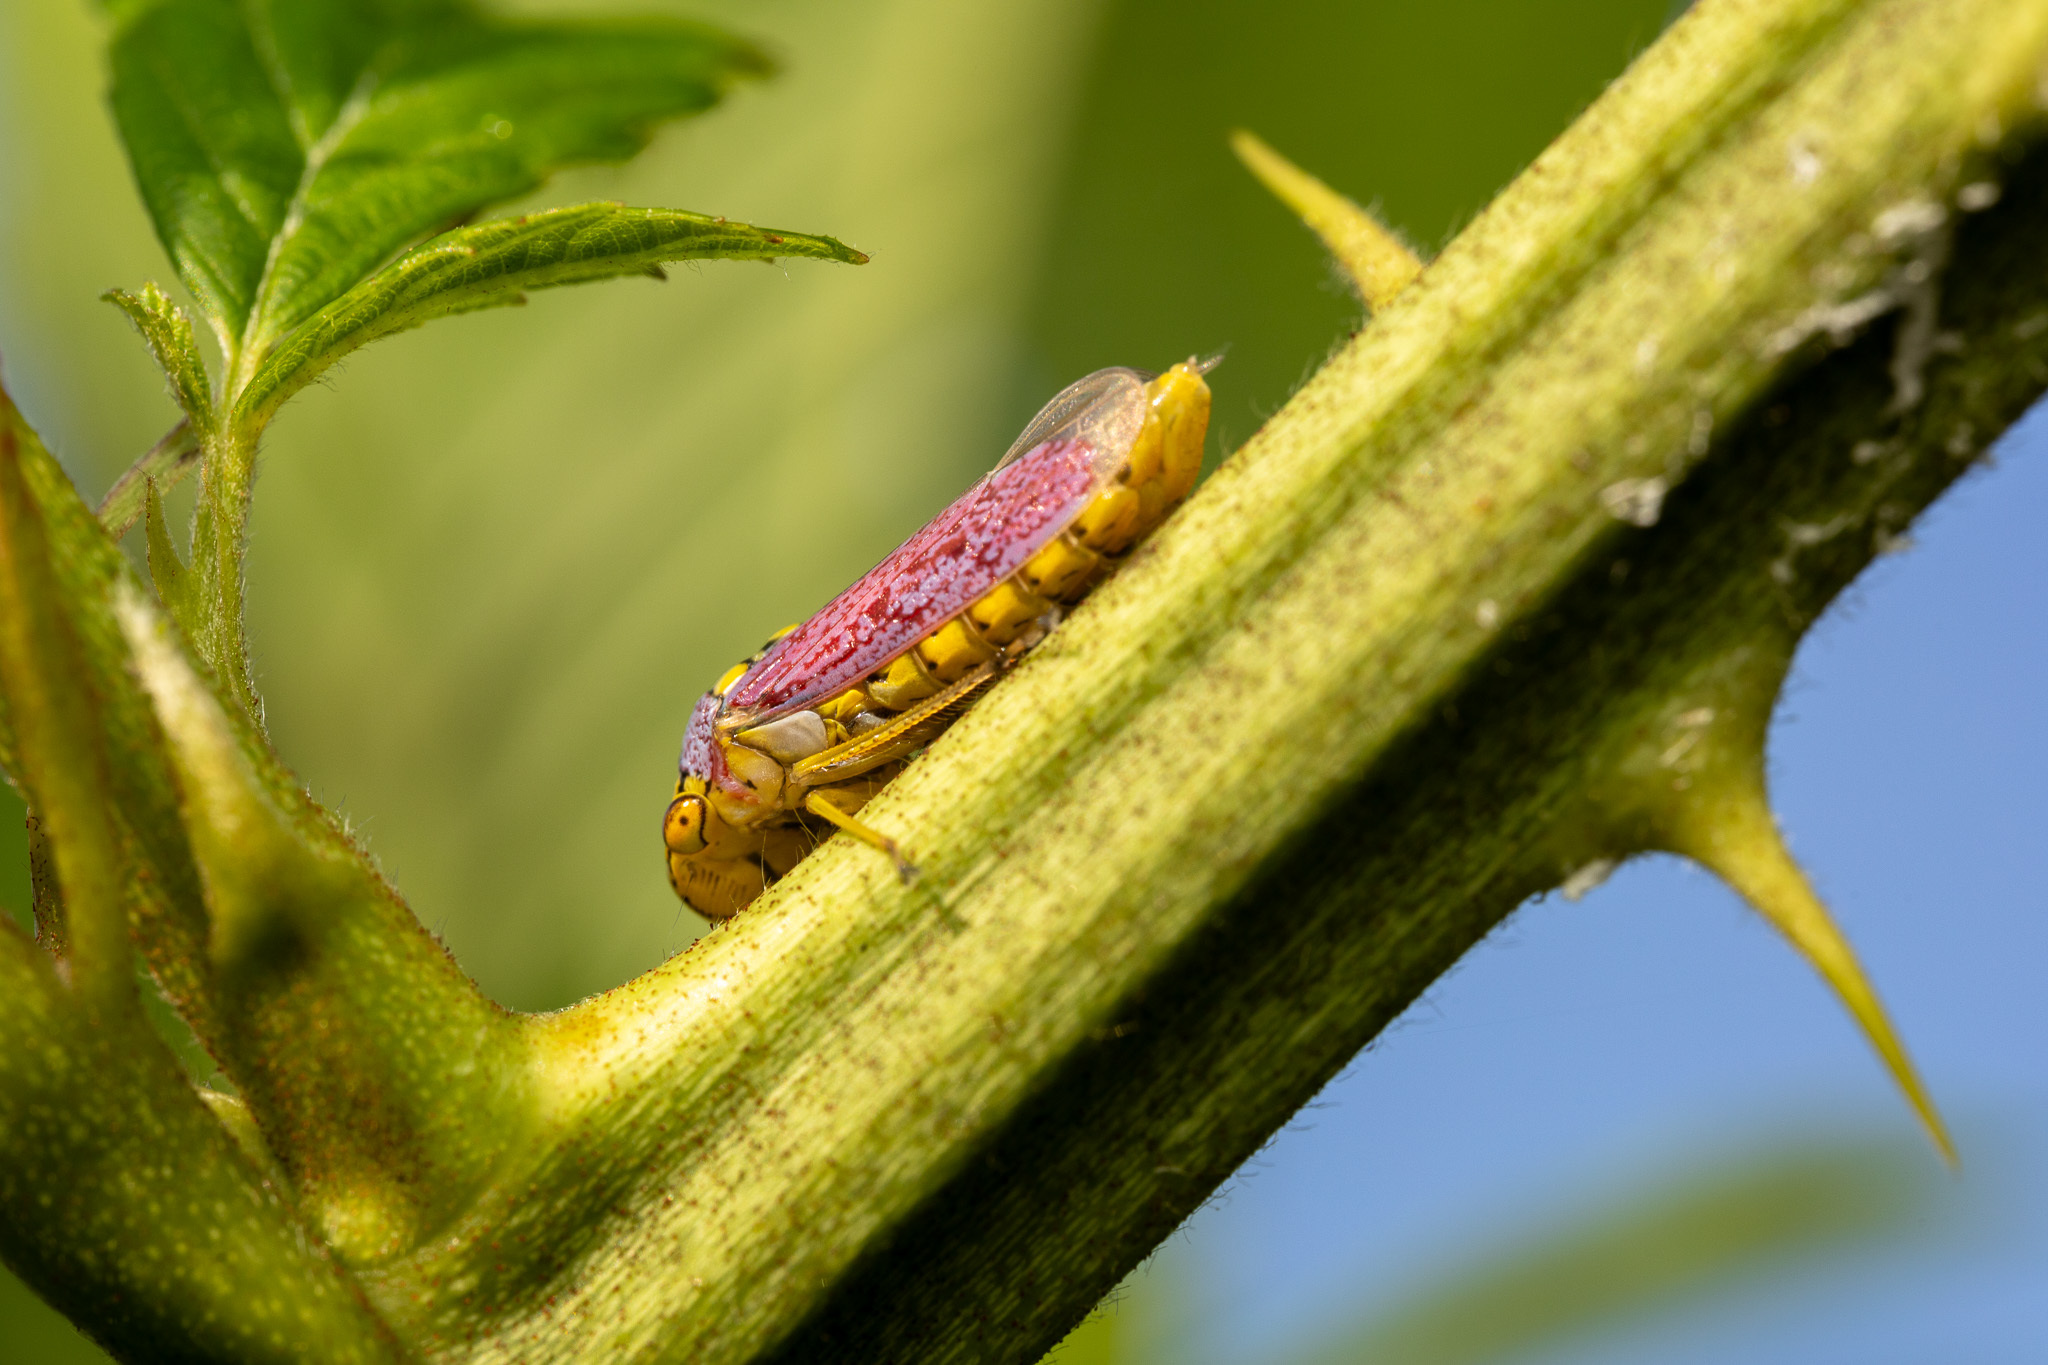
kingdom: Animalia
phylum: Arthropoda
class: Insecta
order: Hemiptera
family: Cicadellidae
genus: Oncometopia
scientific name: Oncometopia orbona
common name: Broad-headed sharpshooter
